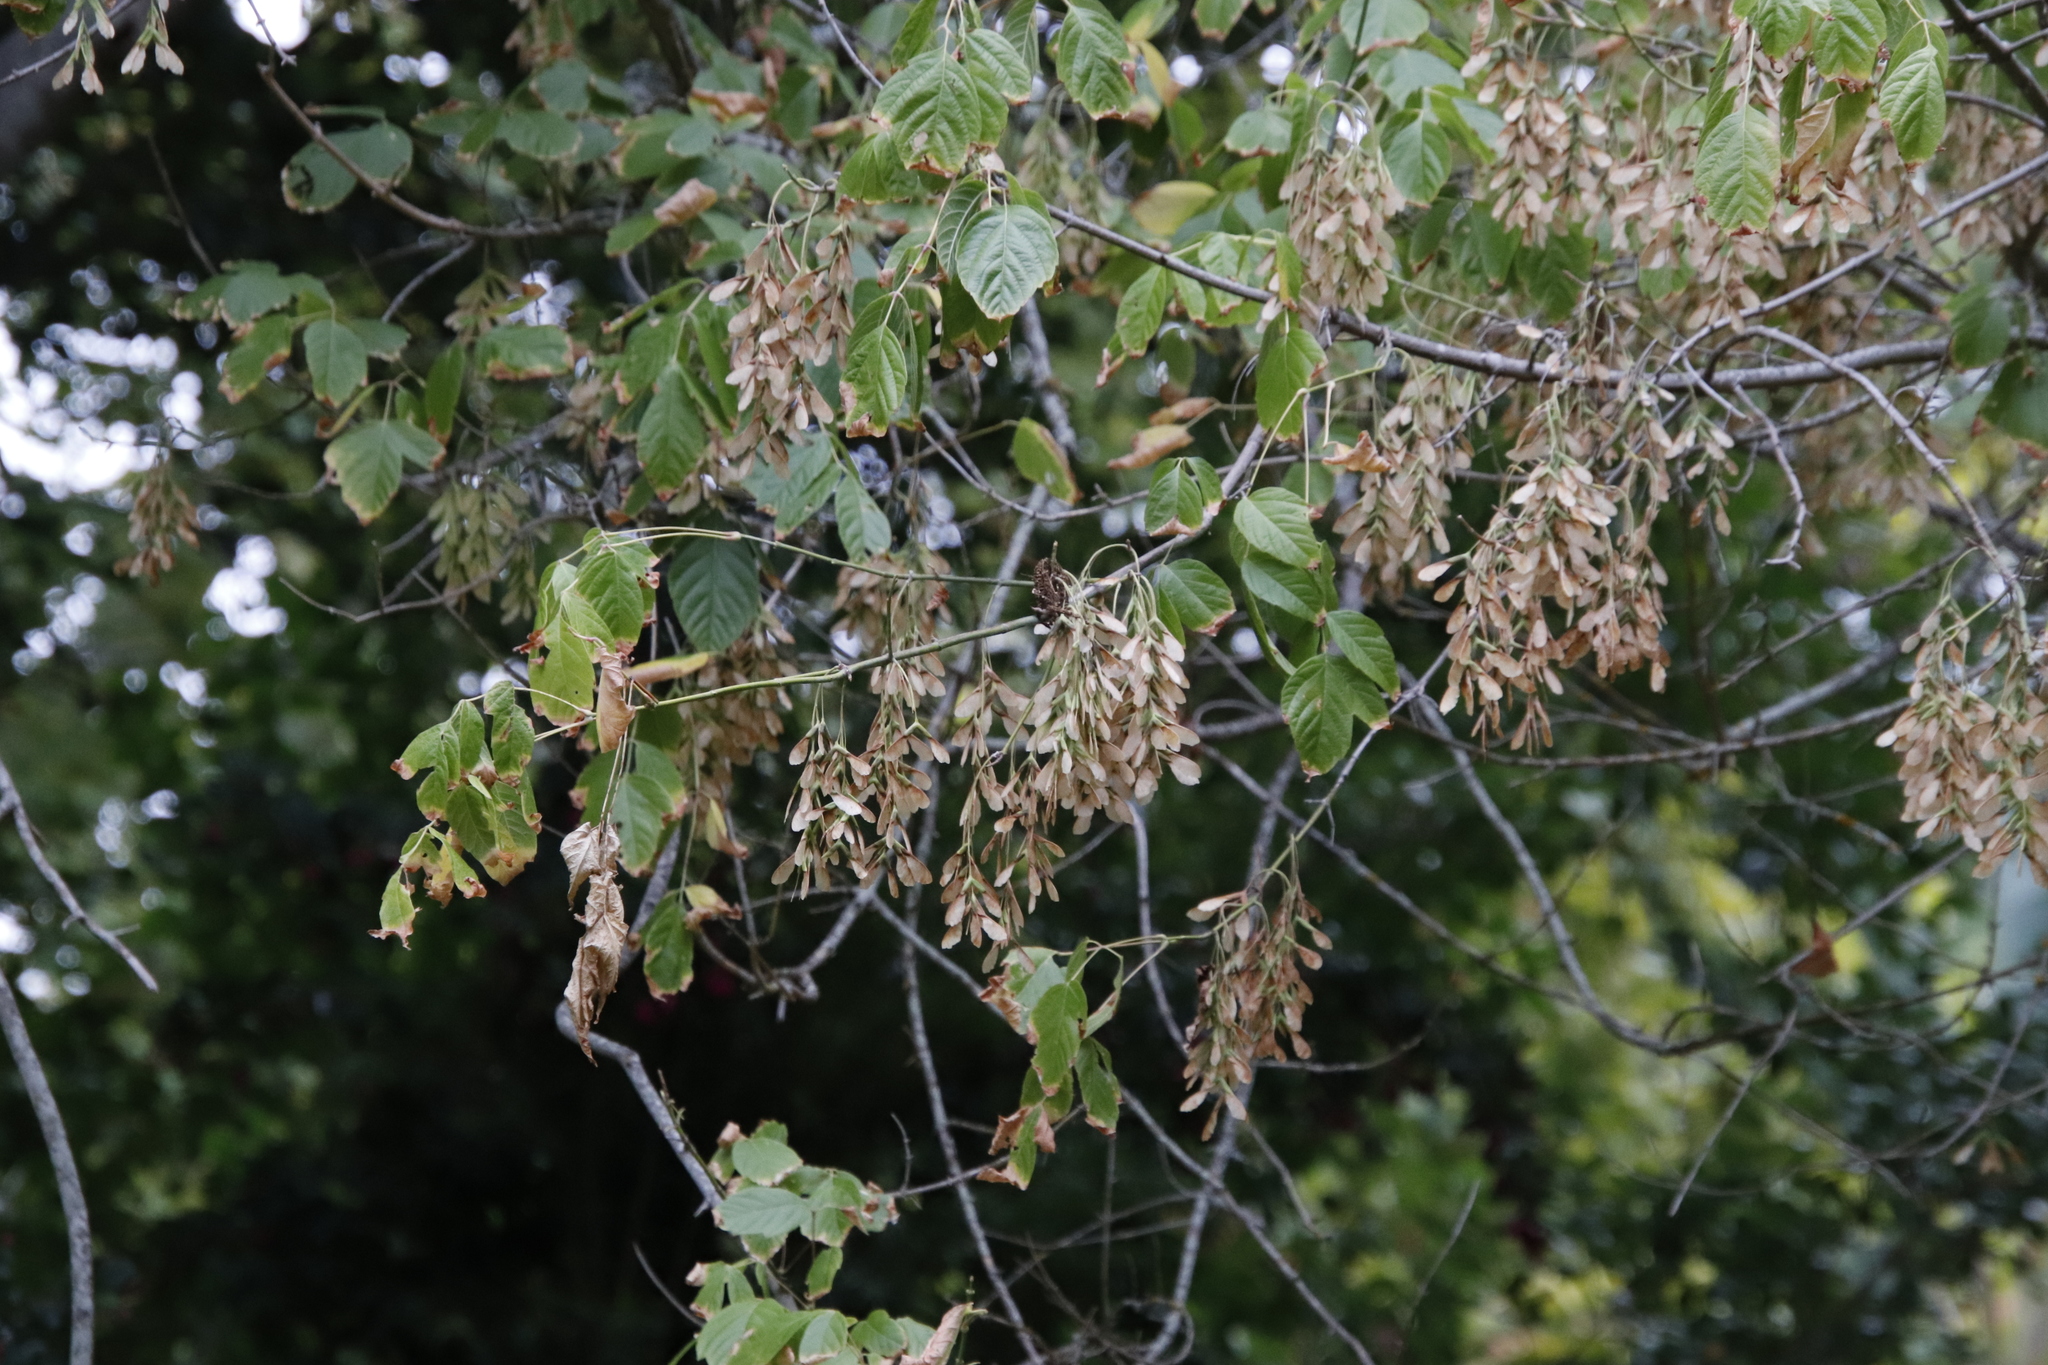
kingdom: Plantae
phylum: Tracheophyta
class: Magnoliopsida
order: Sapindales
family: Sapindaceae
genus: Acer
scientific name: Acer negundo
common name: Ashleaf maple
